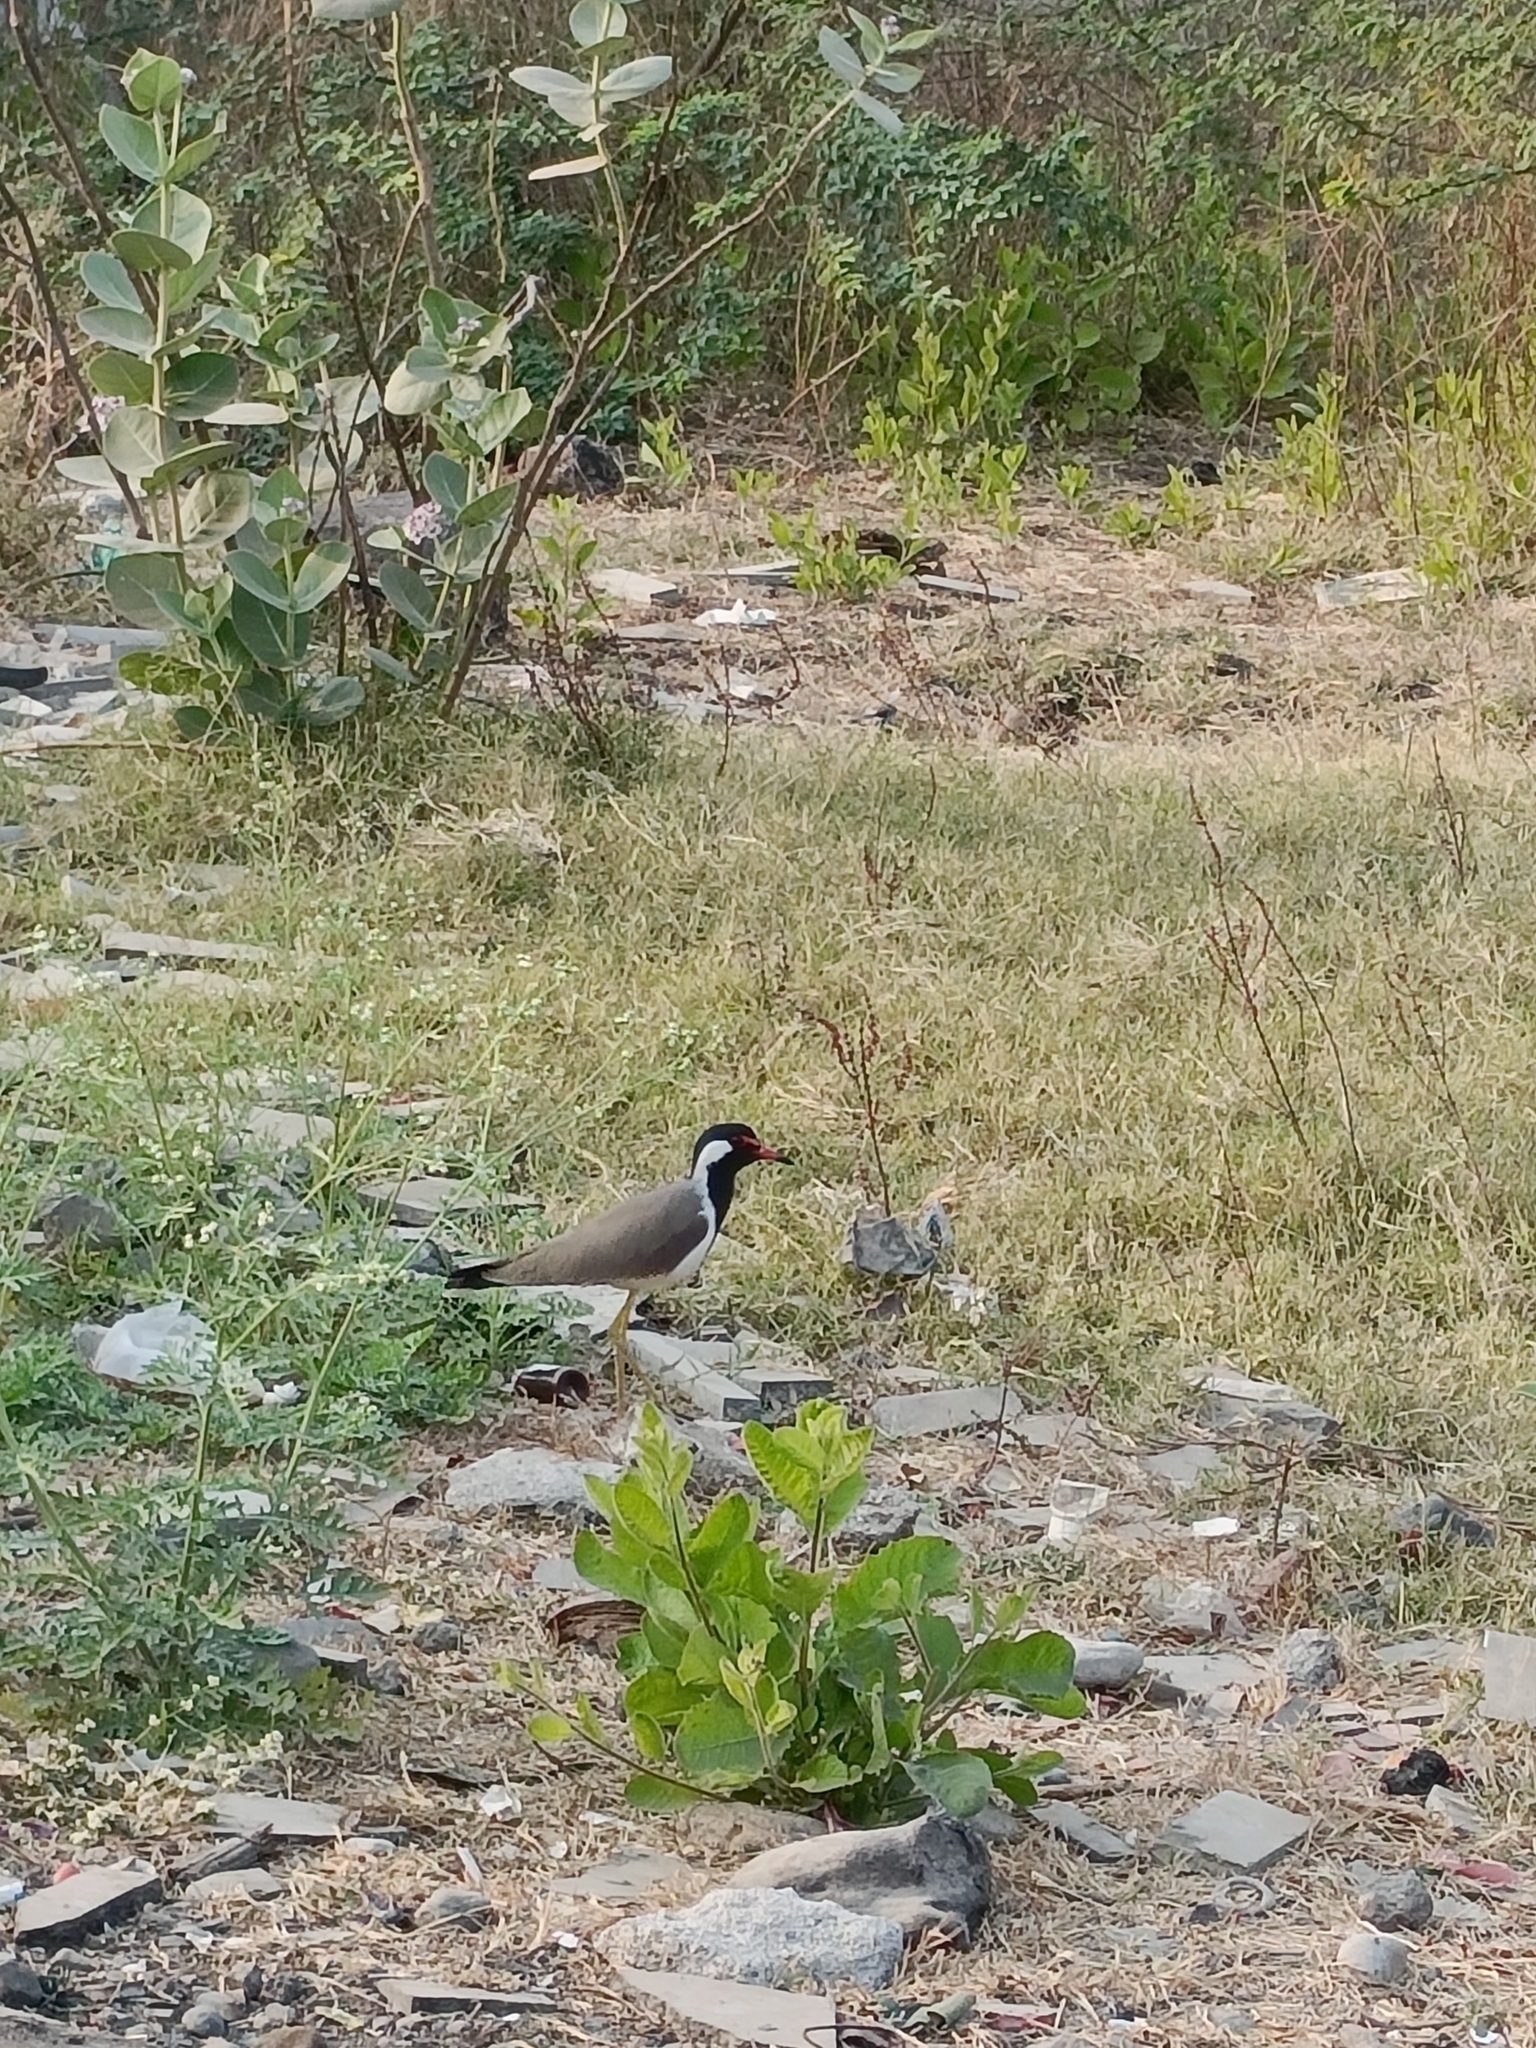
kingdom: Animalia
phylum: Chordata
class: Aves
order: Charadriiformes
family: Charadriidae
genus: Vanellus
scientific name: Vanellus indicus
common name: Red-wattled lapwing
